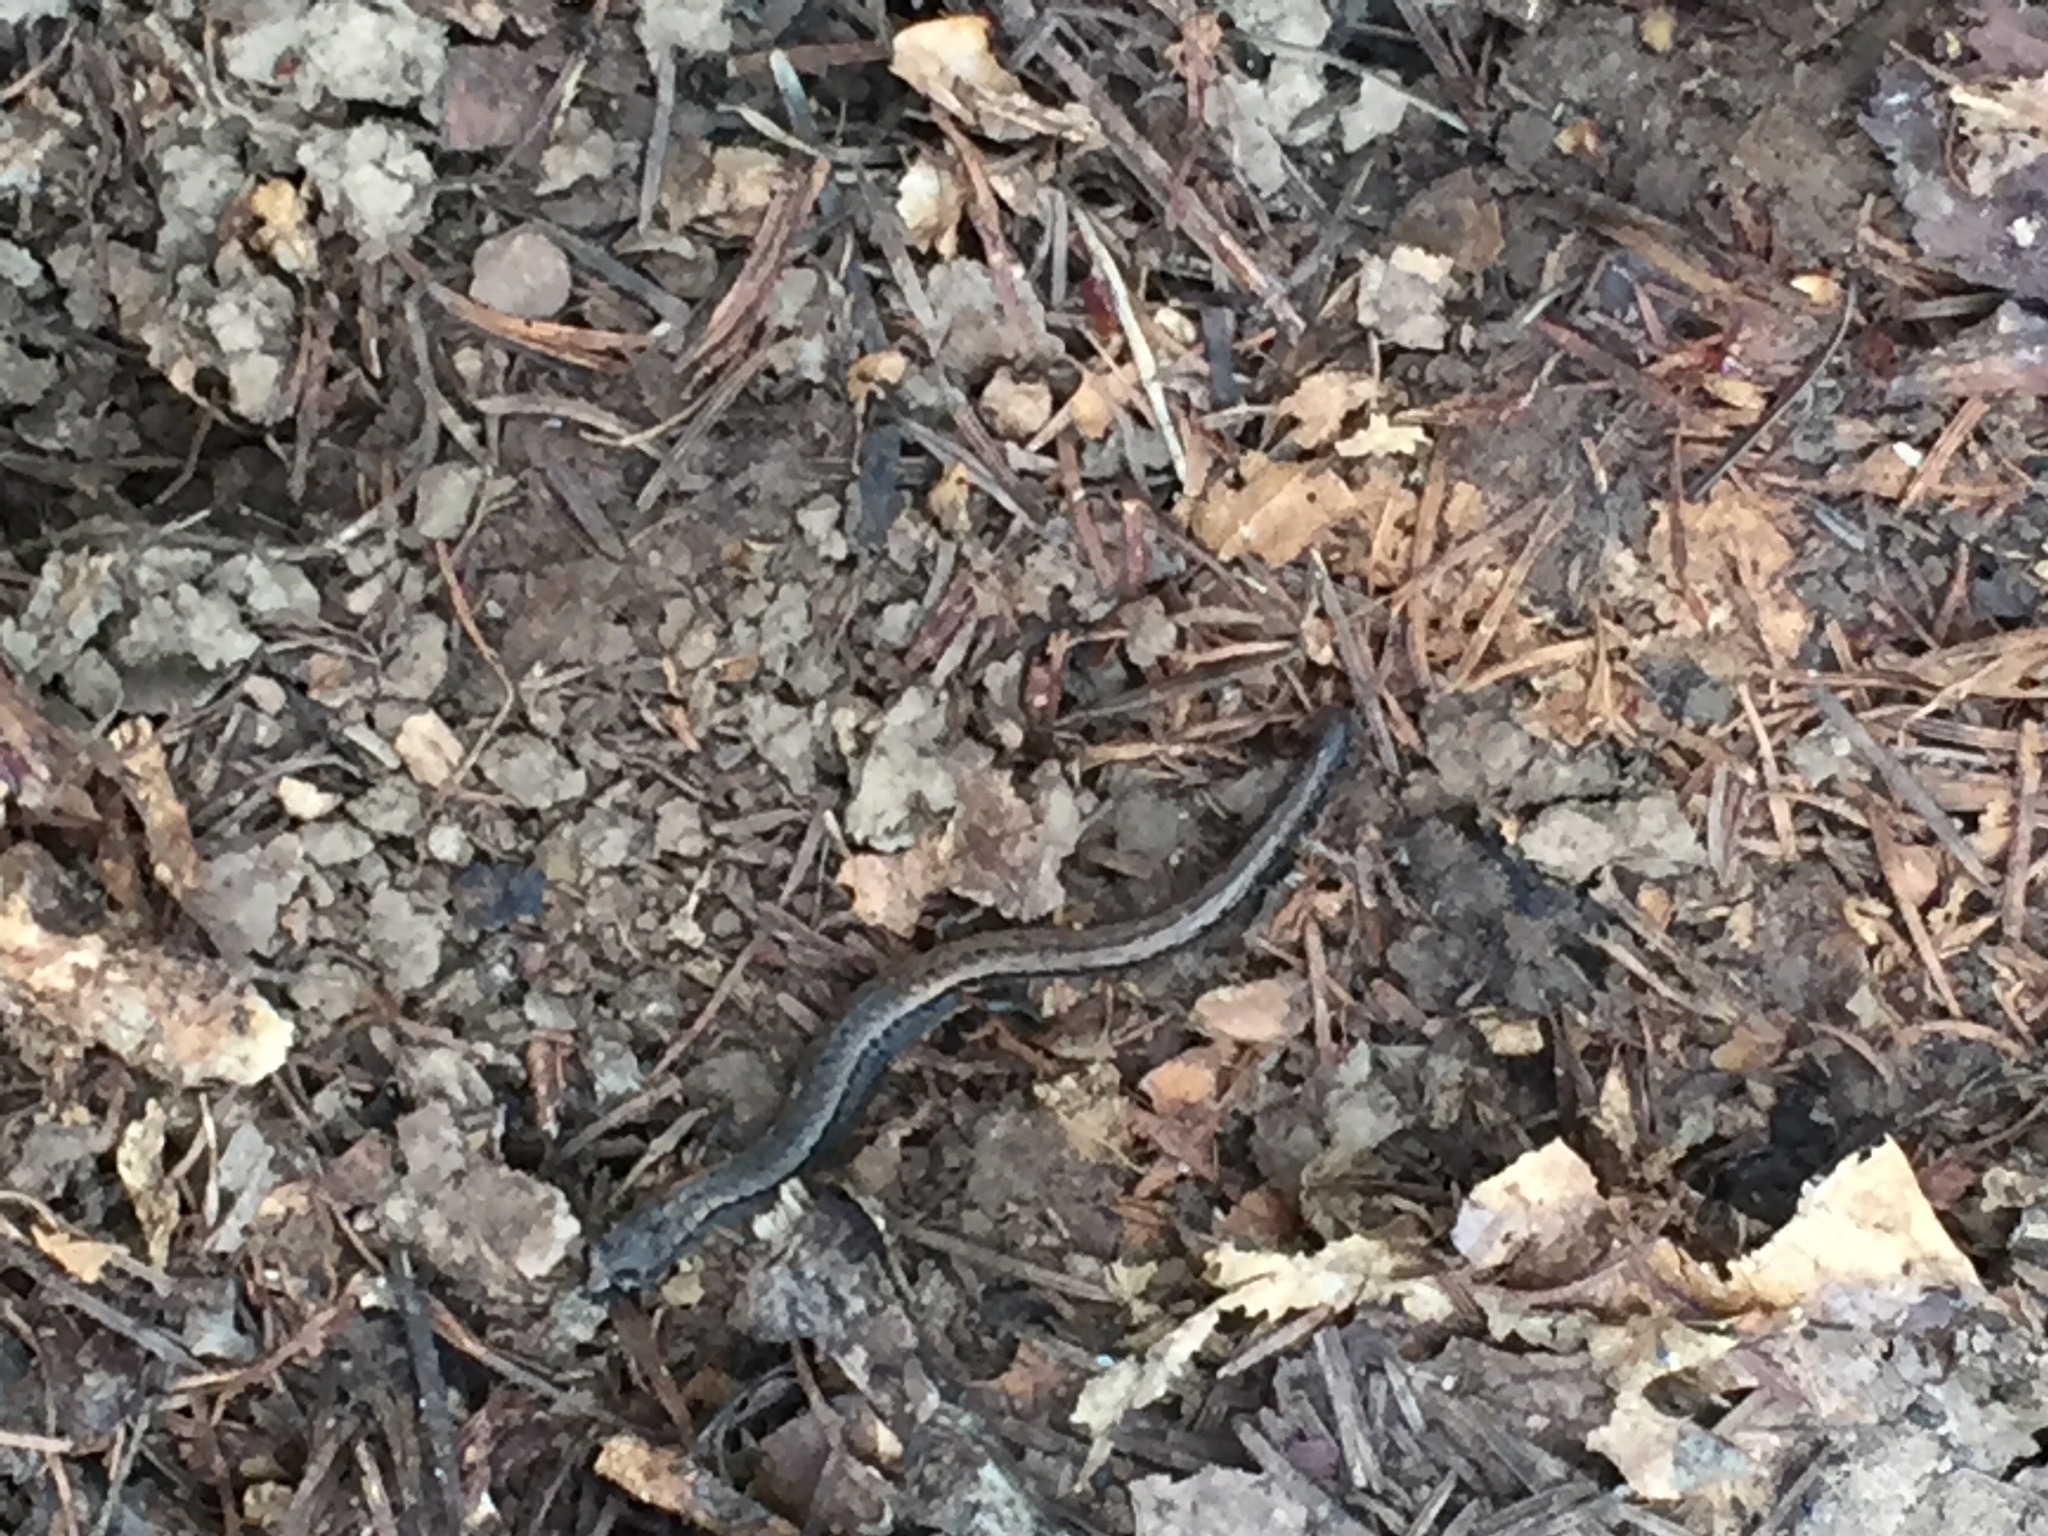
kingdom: Animalia
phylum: Chordata
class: Amphibia
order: Caudata
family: Plethodontidae
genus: Batrachoseps
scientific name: Batrachoseps attenuatus
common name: California slender salamander
